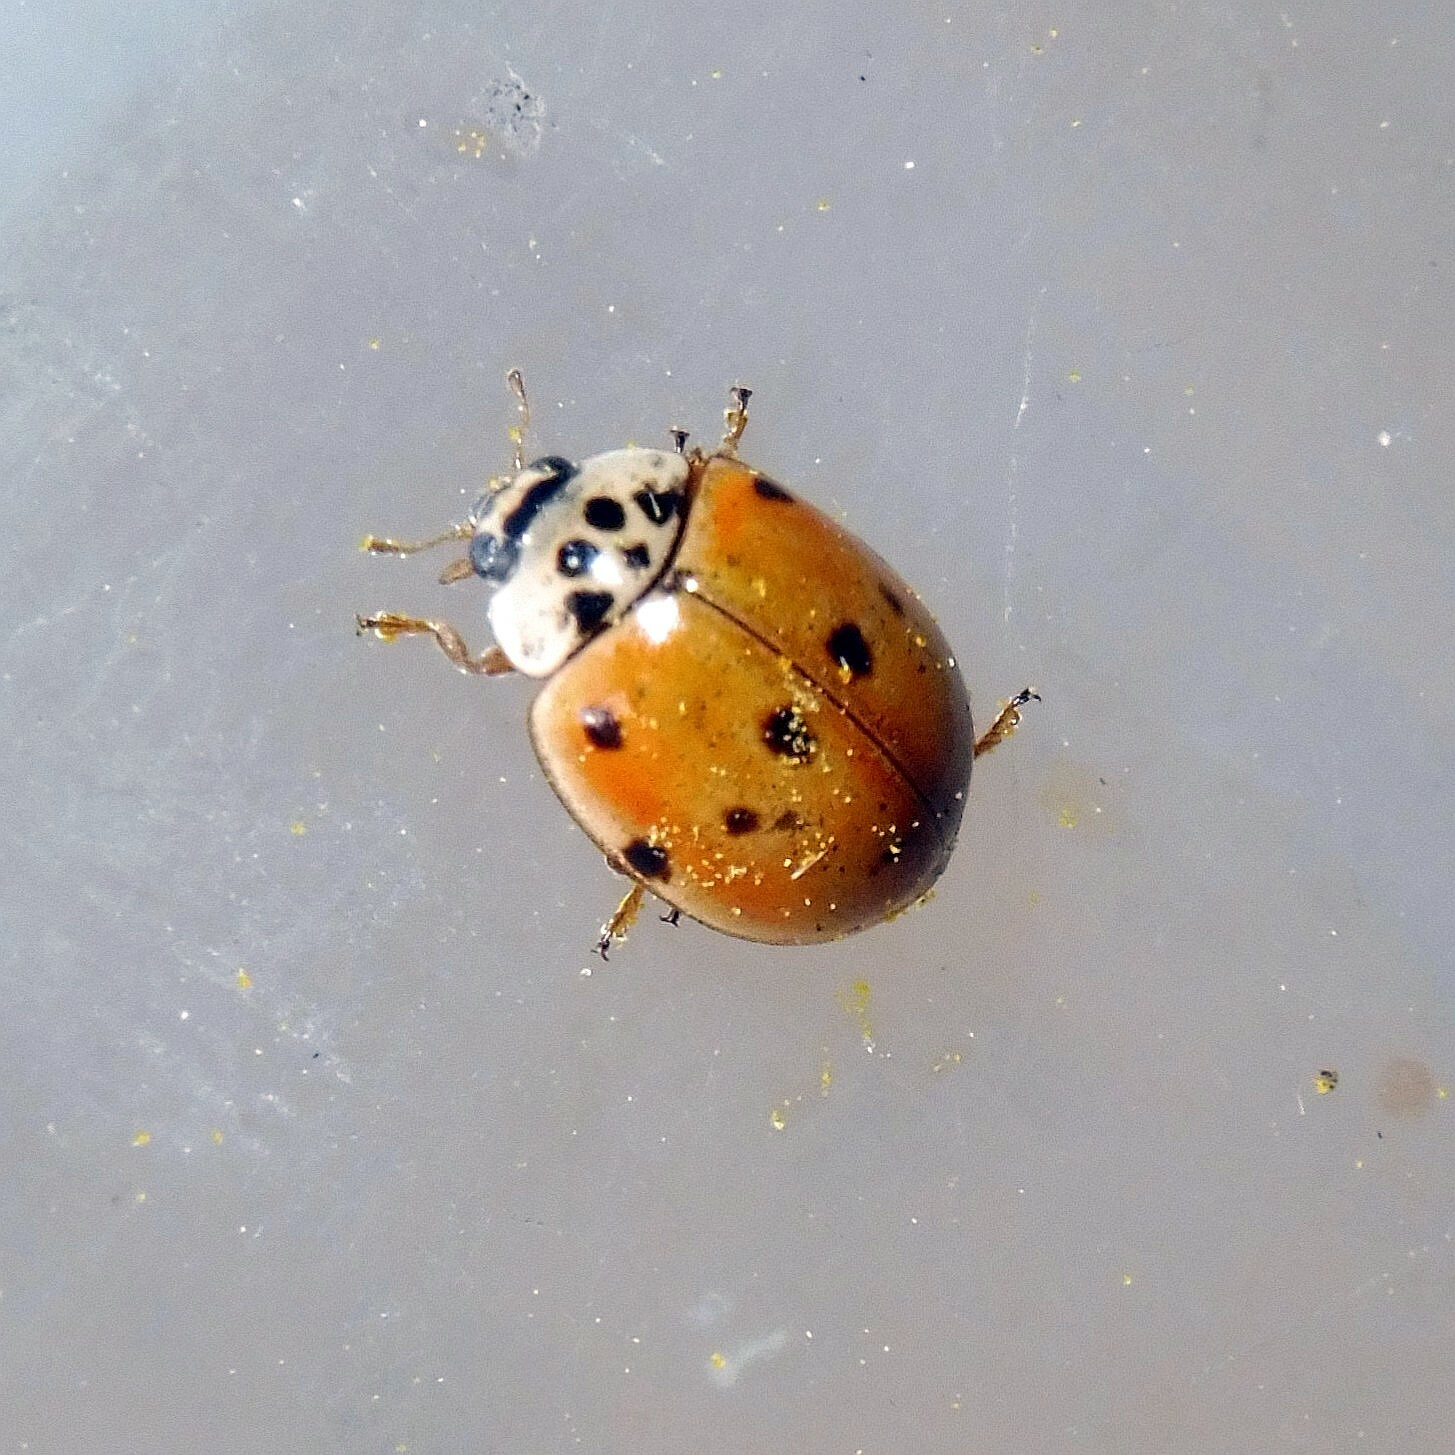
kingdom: Animalia
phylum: Arthropoda
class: Insecta
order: Coleoptera
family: Coccinellidae
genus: Adalia
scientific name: Adalia decempunctata
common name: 10-spot ladybird
